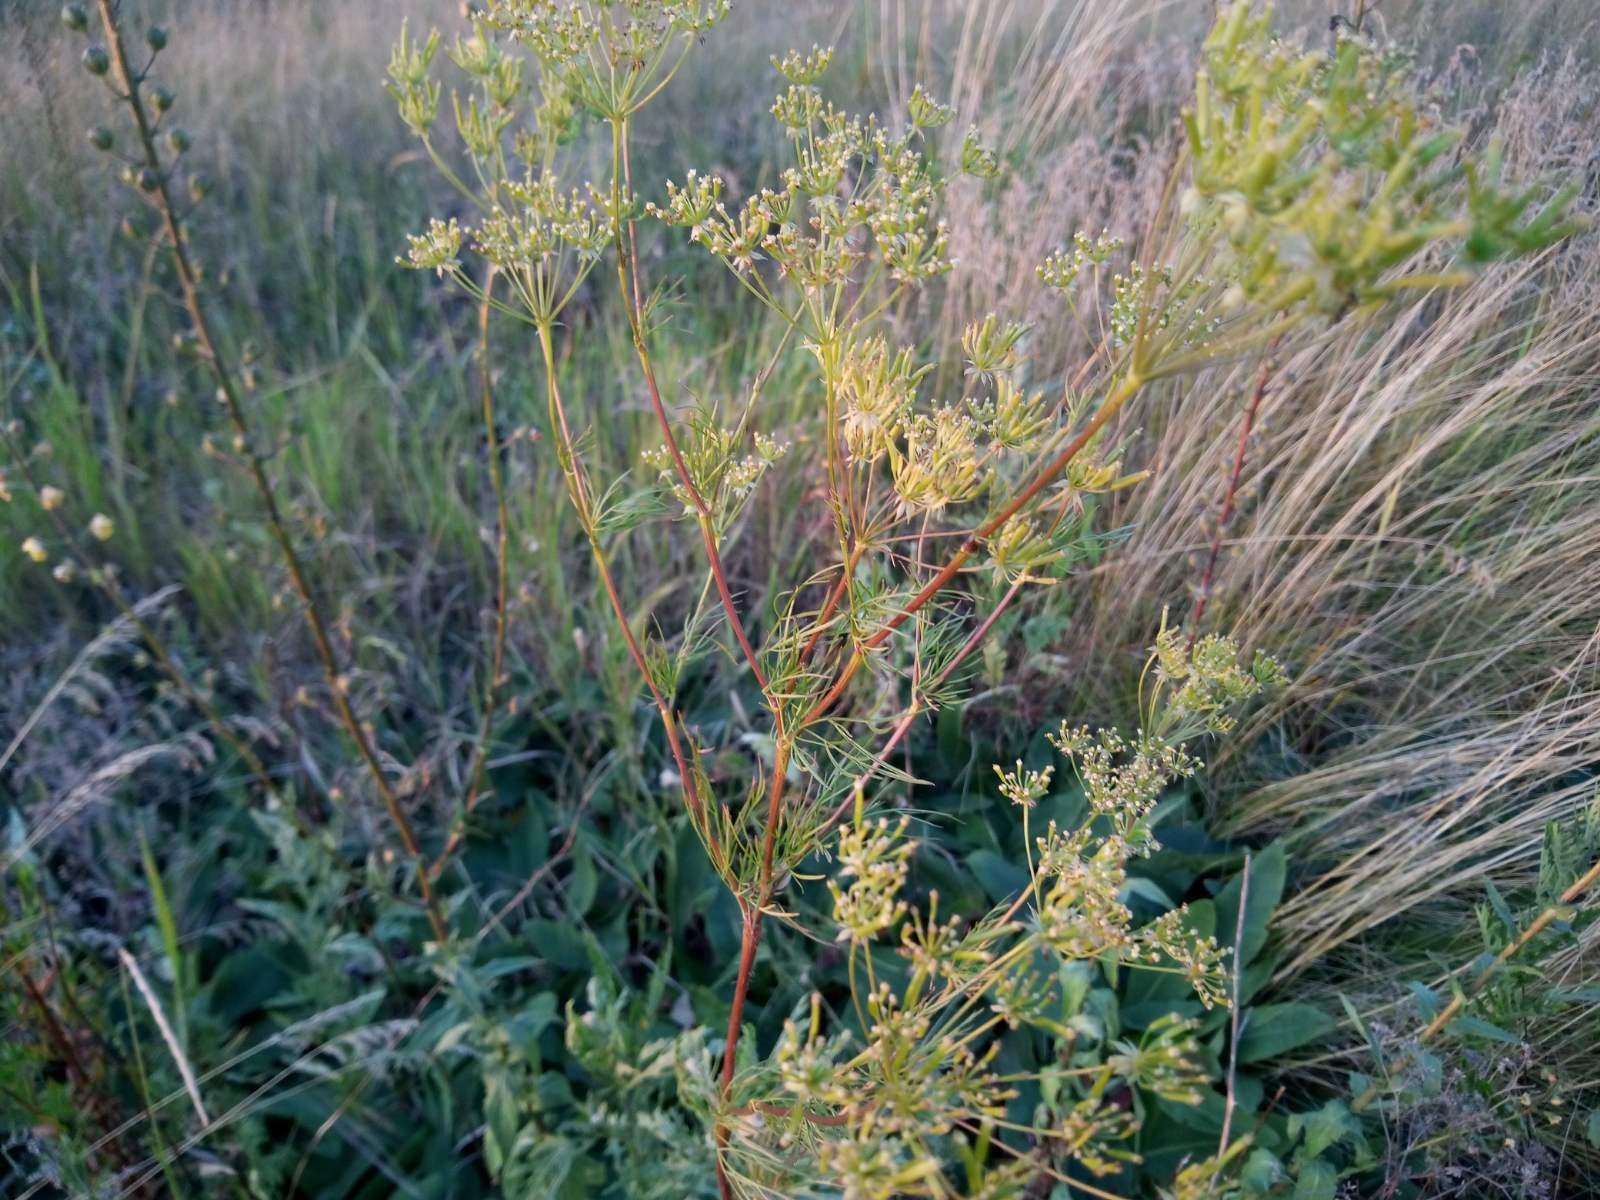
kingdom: Plantae
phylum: Tracheophyta
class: Magnoliopsida
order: Apiales
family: Apiaceae
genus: Chaerophyllum
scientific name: Chaerophyllum prescottii
